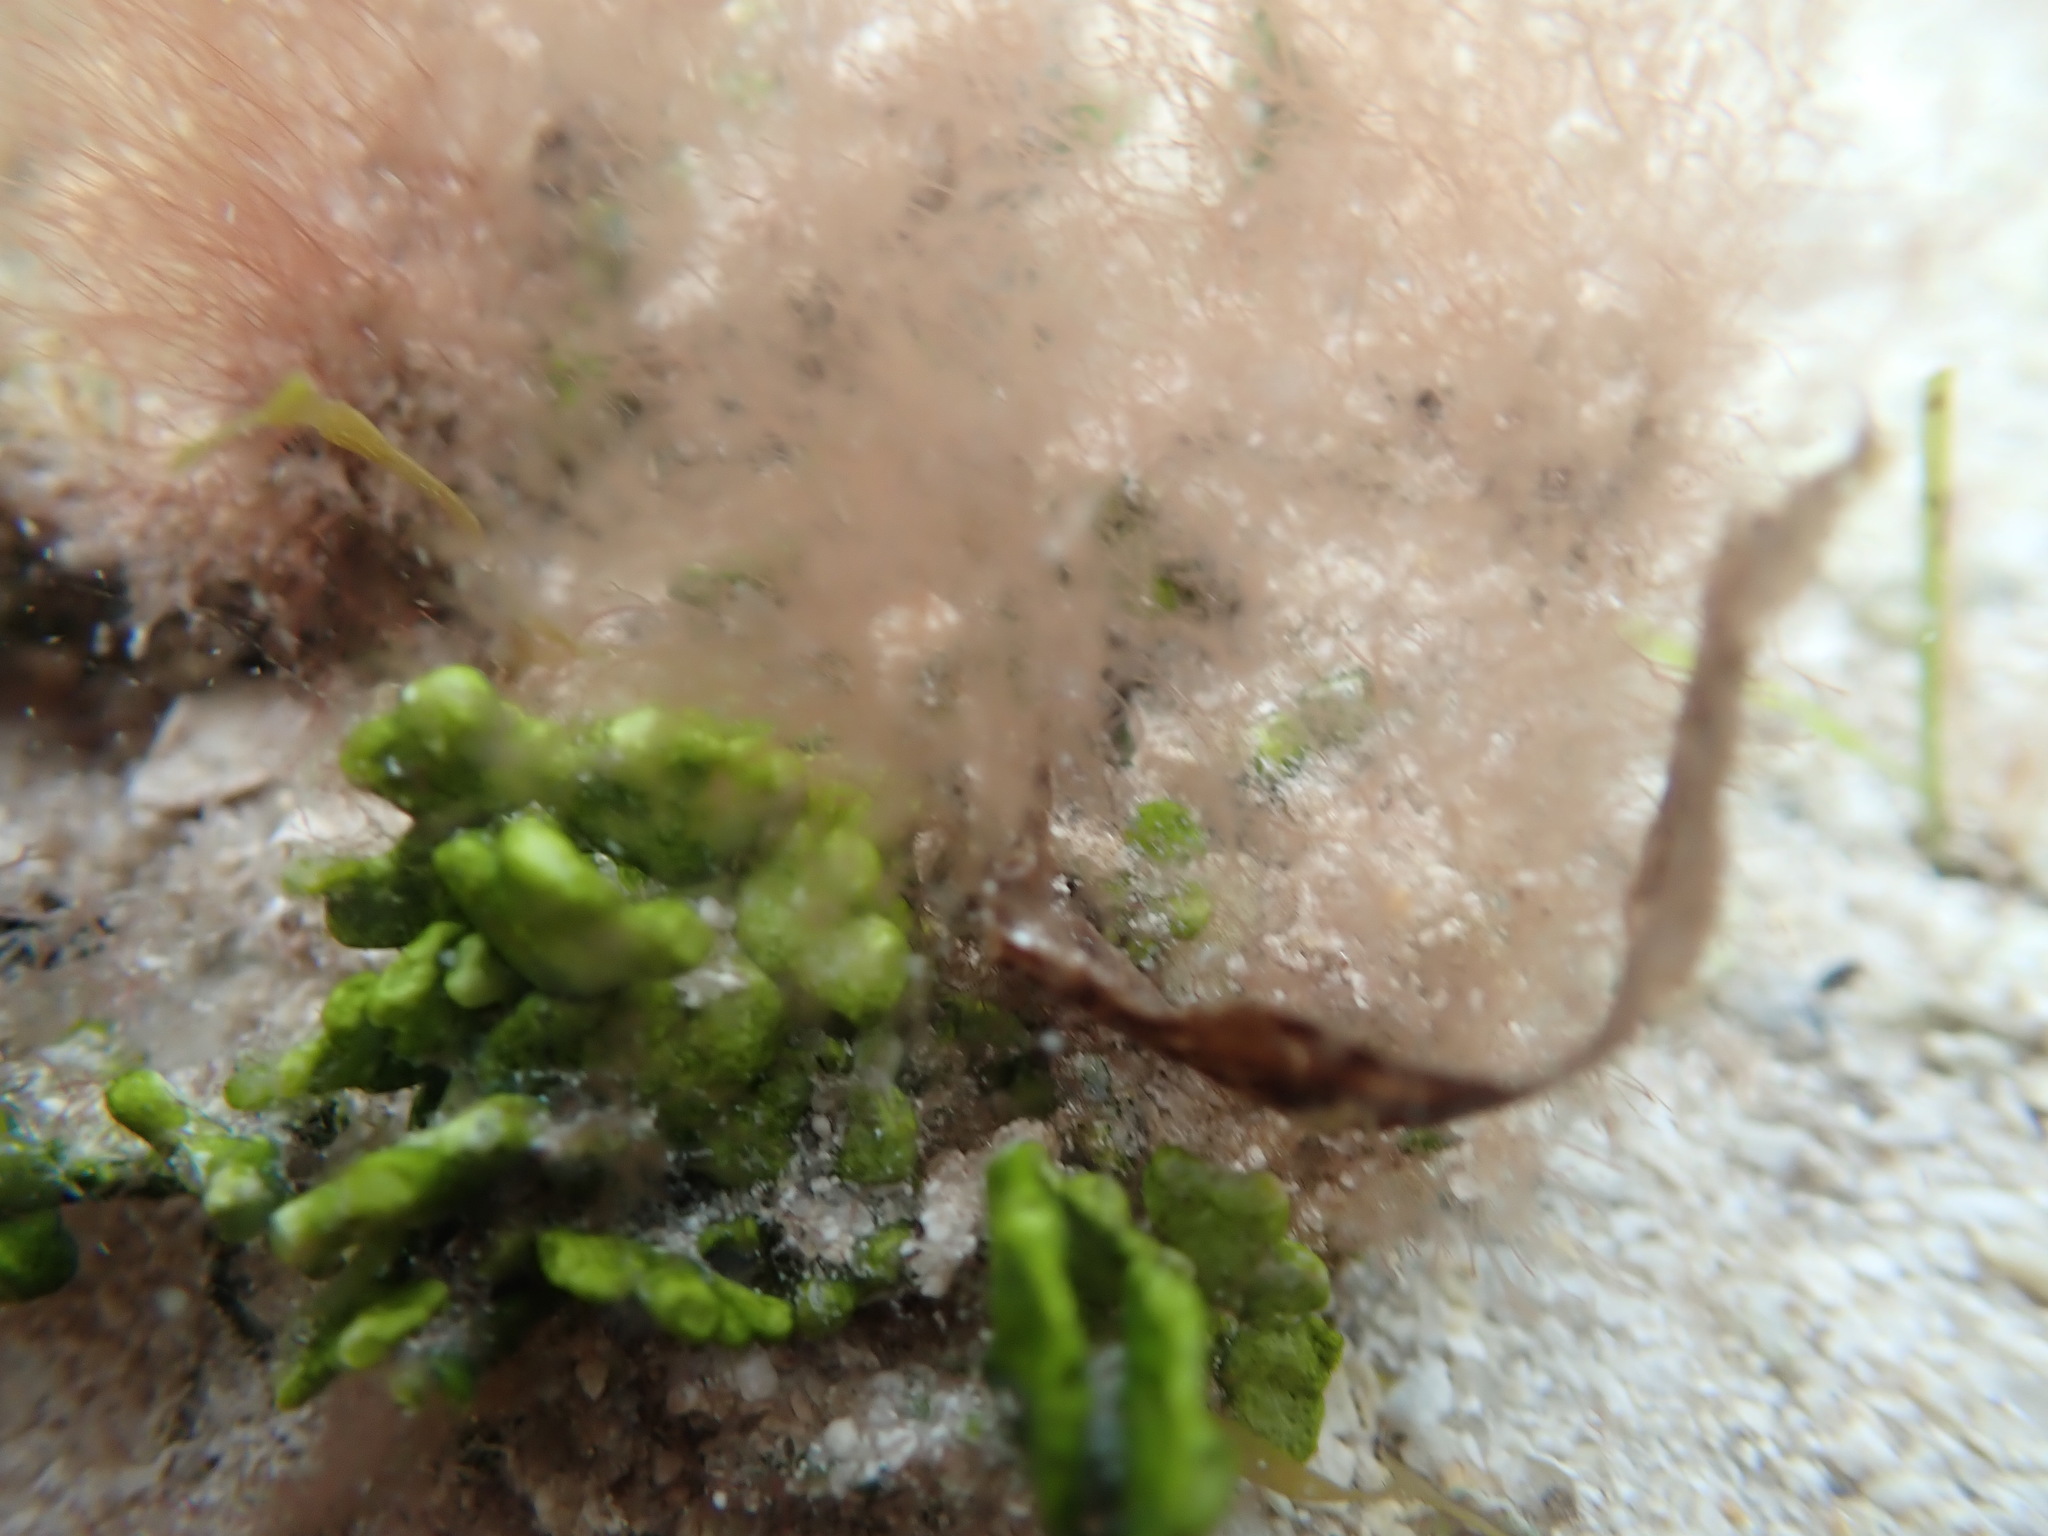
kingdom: Plantae
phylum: Chlorophyta
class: Ulvophyceae
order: Bryopsidales
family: Halimedaceae
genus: Halimeda
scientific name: Halimeda incrassata
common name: Three finger leaf algae
